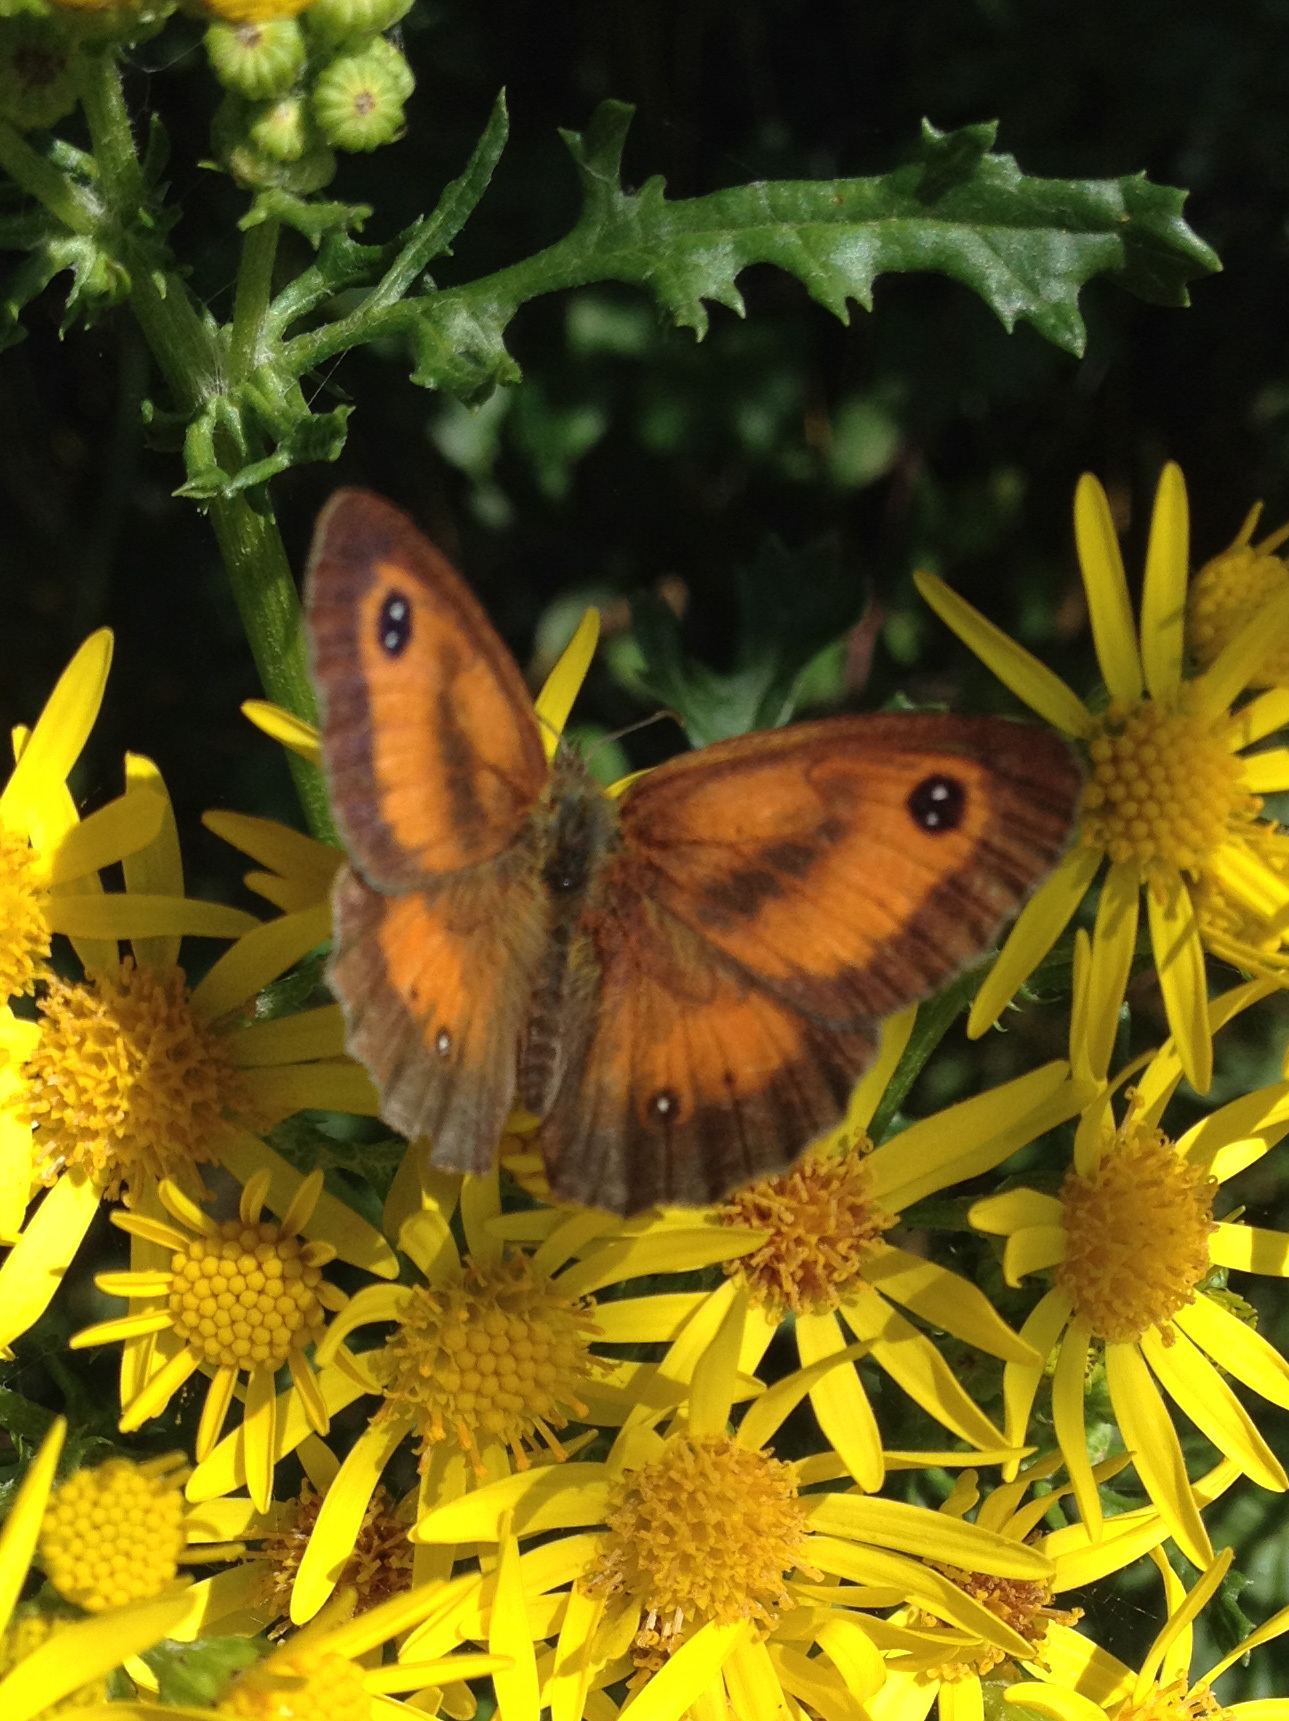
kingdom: Animalia
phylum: Arthropoda
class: Insecta
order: Lepidoptera
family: Nymphalidae
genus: Pyronia
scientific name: Pyronia tithonus
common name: Gatekeeper
